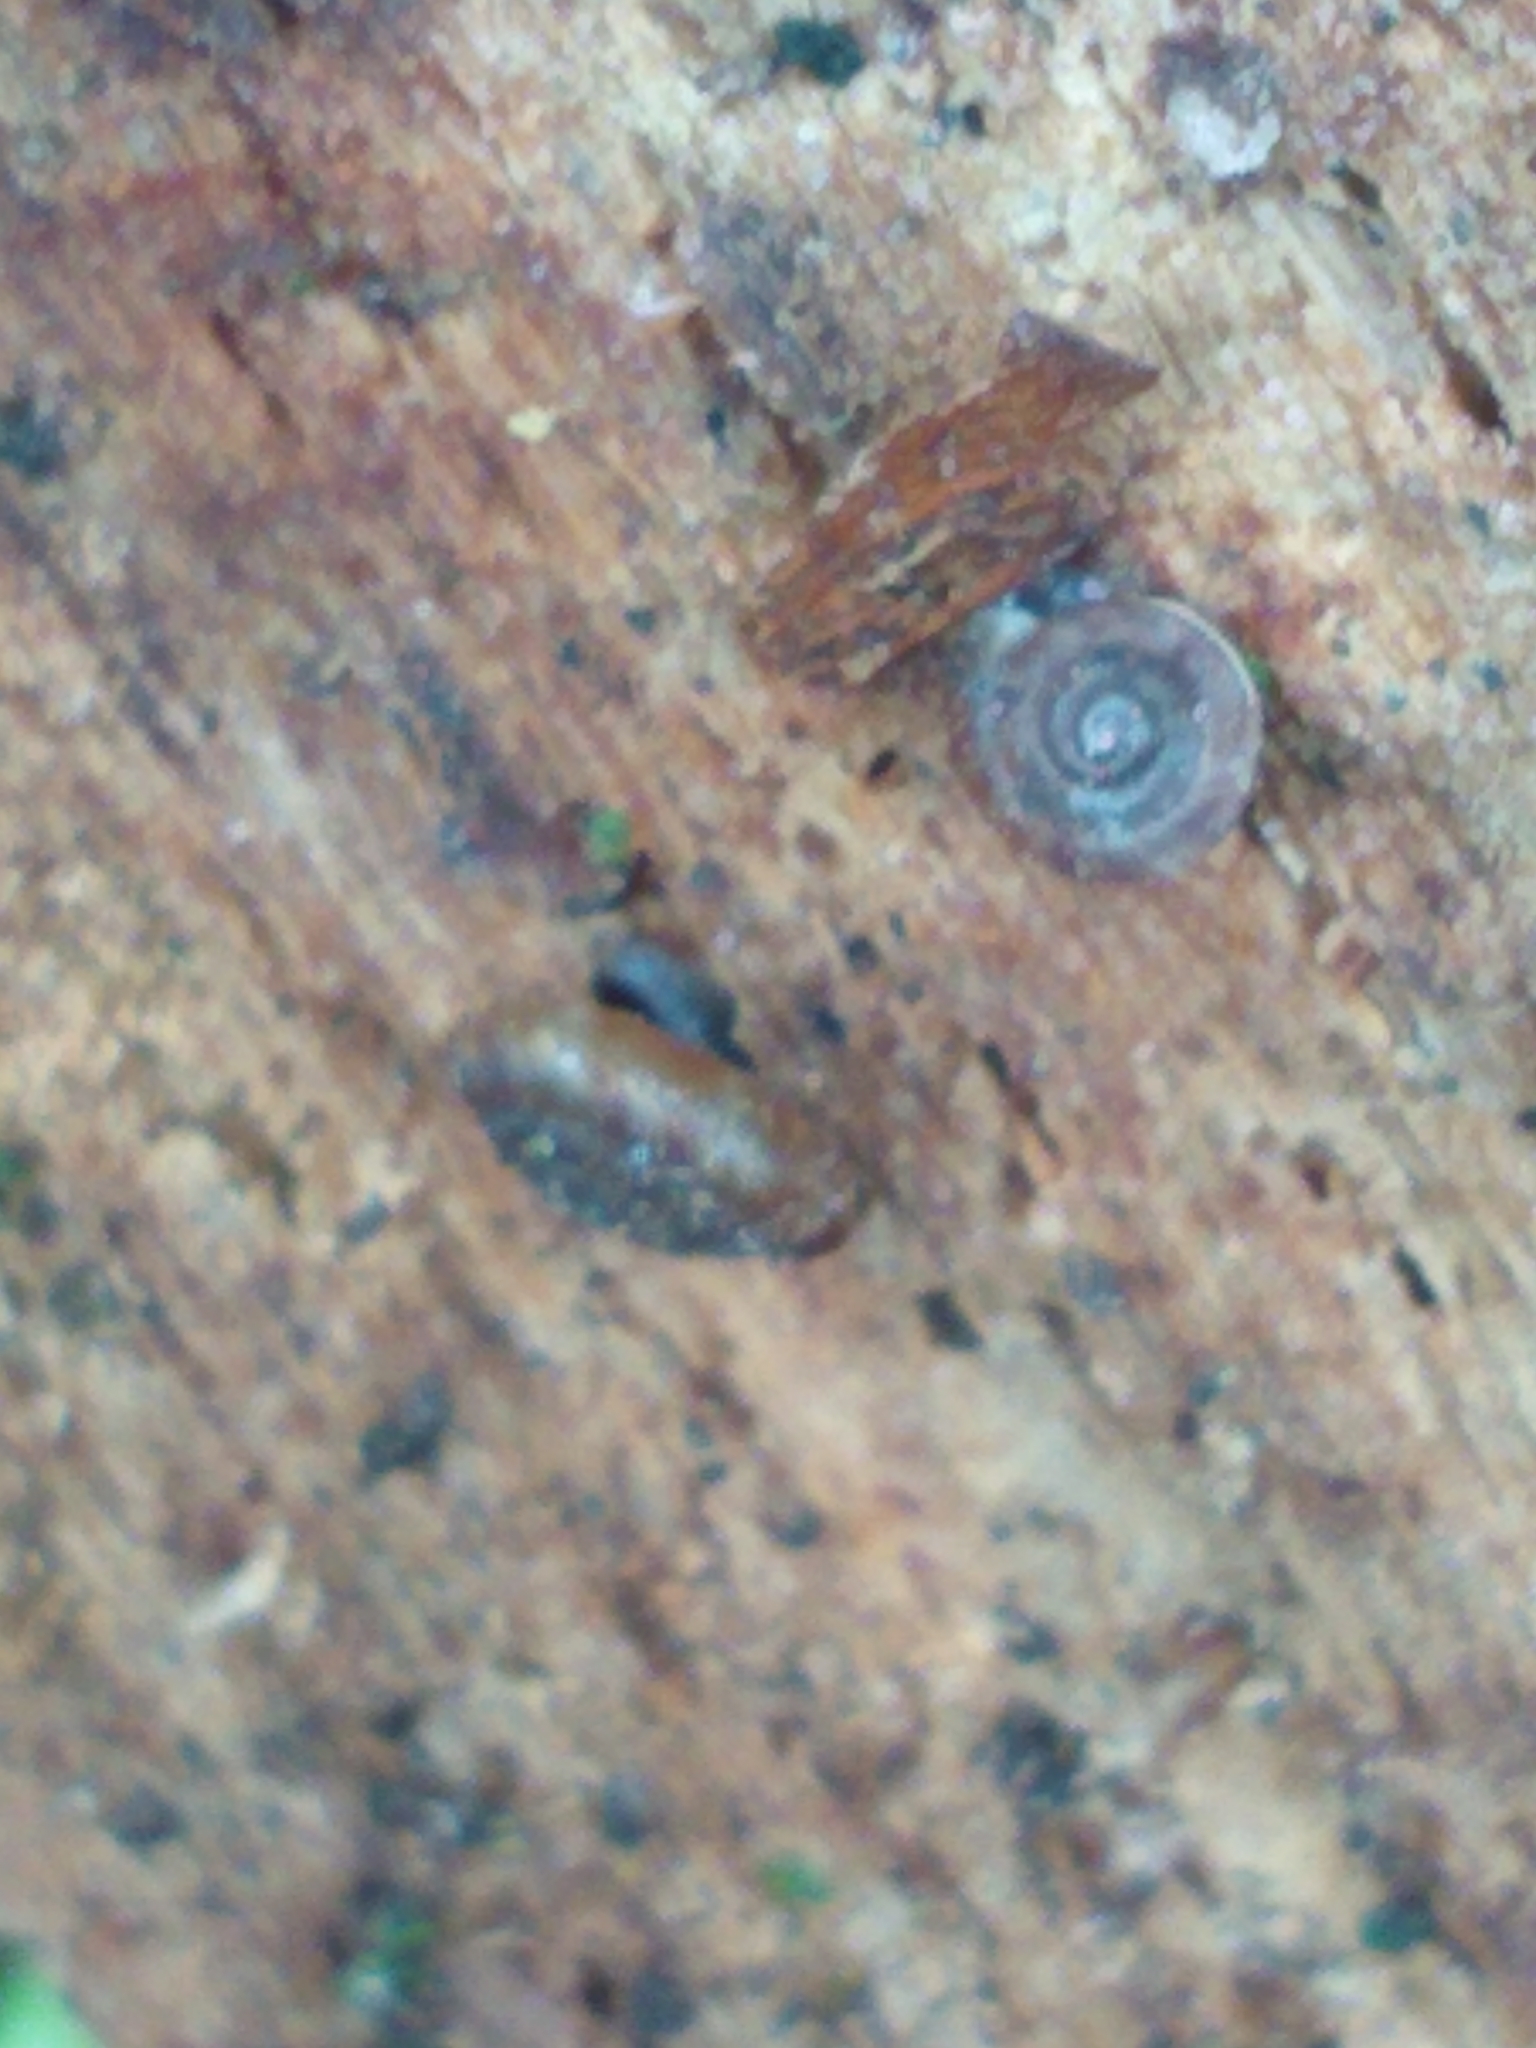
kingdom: Animalia
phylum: Mollusca
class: Gastropoda
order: Stylommatophora
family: Discidae
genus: Discus
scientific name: Discus rotundatus
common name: Rounded snail
